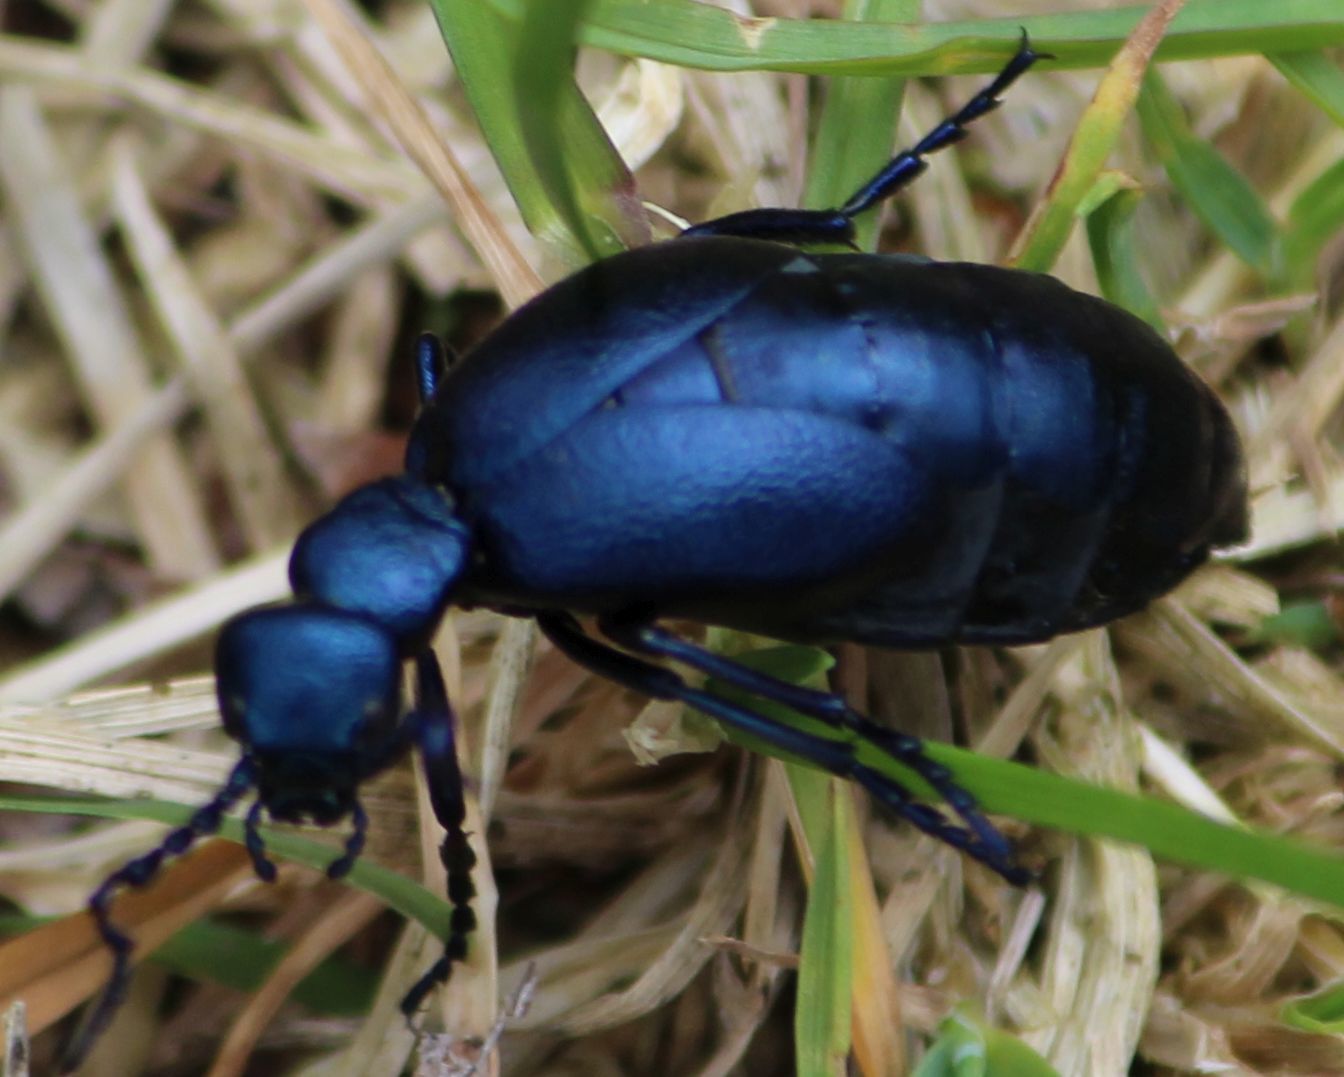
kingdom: Animalia
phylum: Arthropoda
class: Insecta
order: Coleoptera
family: Meloidae
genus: Meloe
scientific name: Meloe violaceus
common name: Violet oil-beetle
